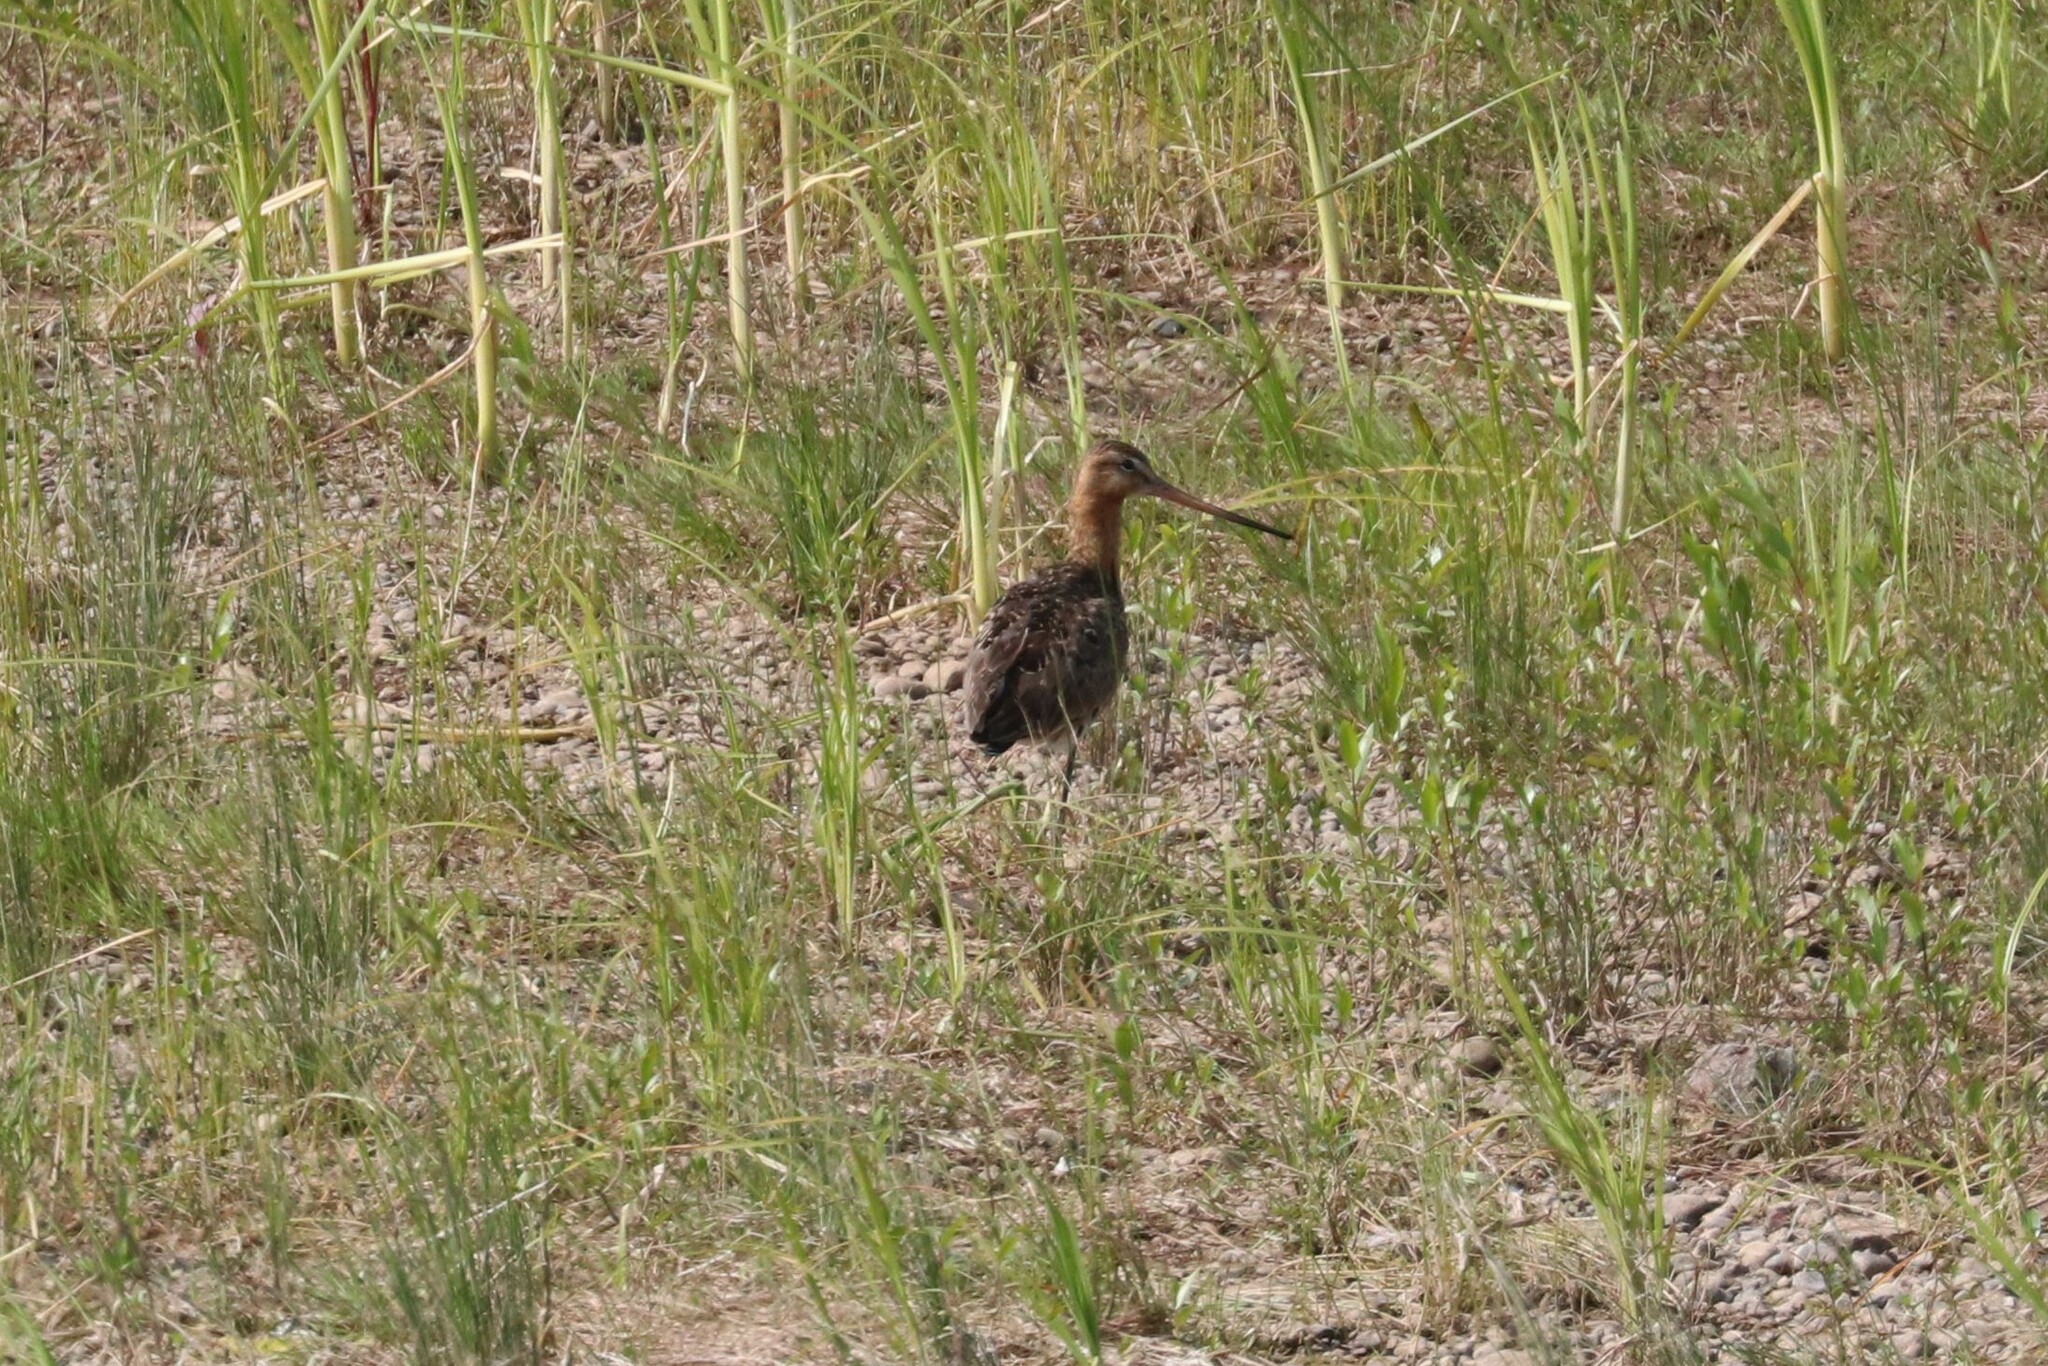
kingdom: Animalia
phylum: Chordata
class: Aves
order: Charadriiformes
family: Scolopacidae
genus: Limosa
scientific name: Limosa limosa
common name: Black-tailed godwit
